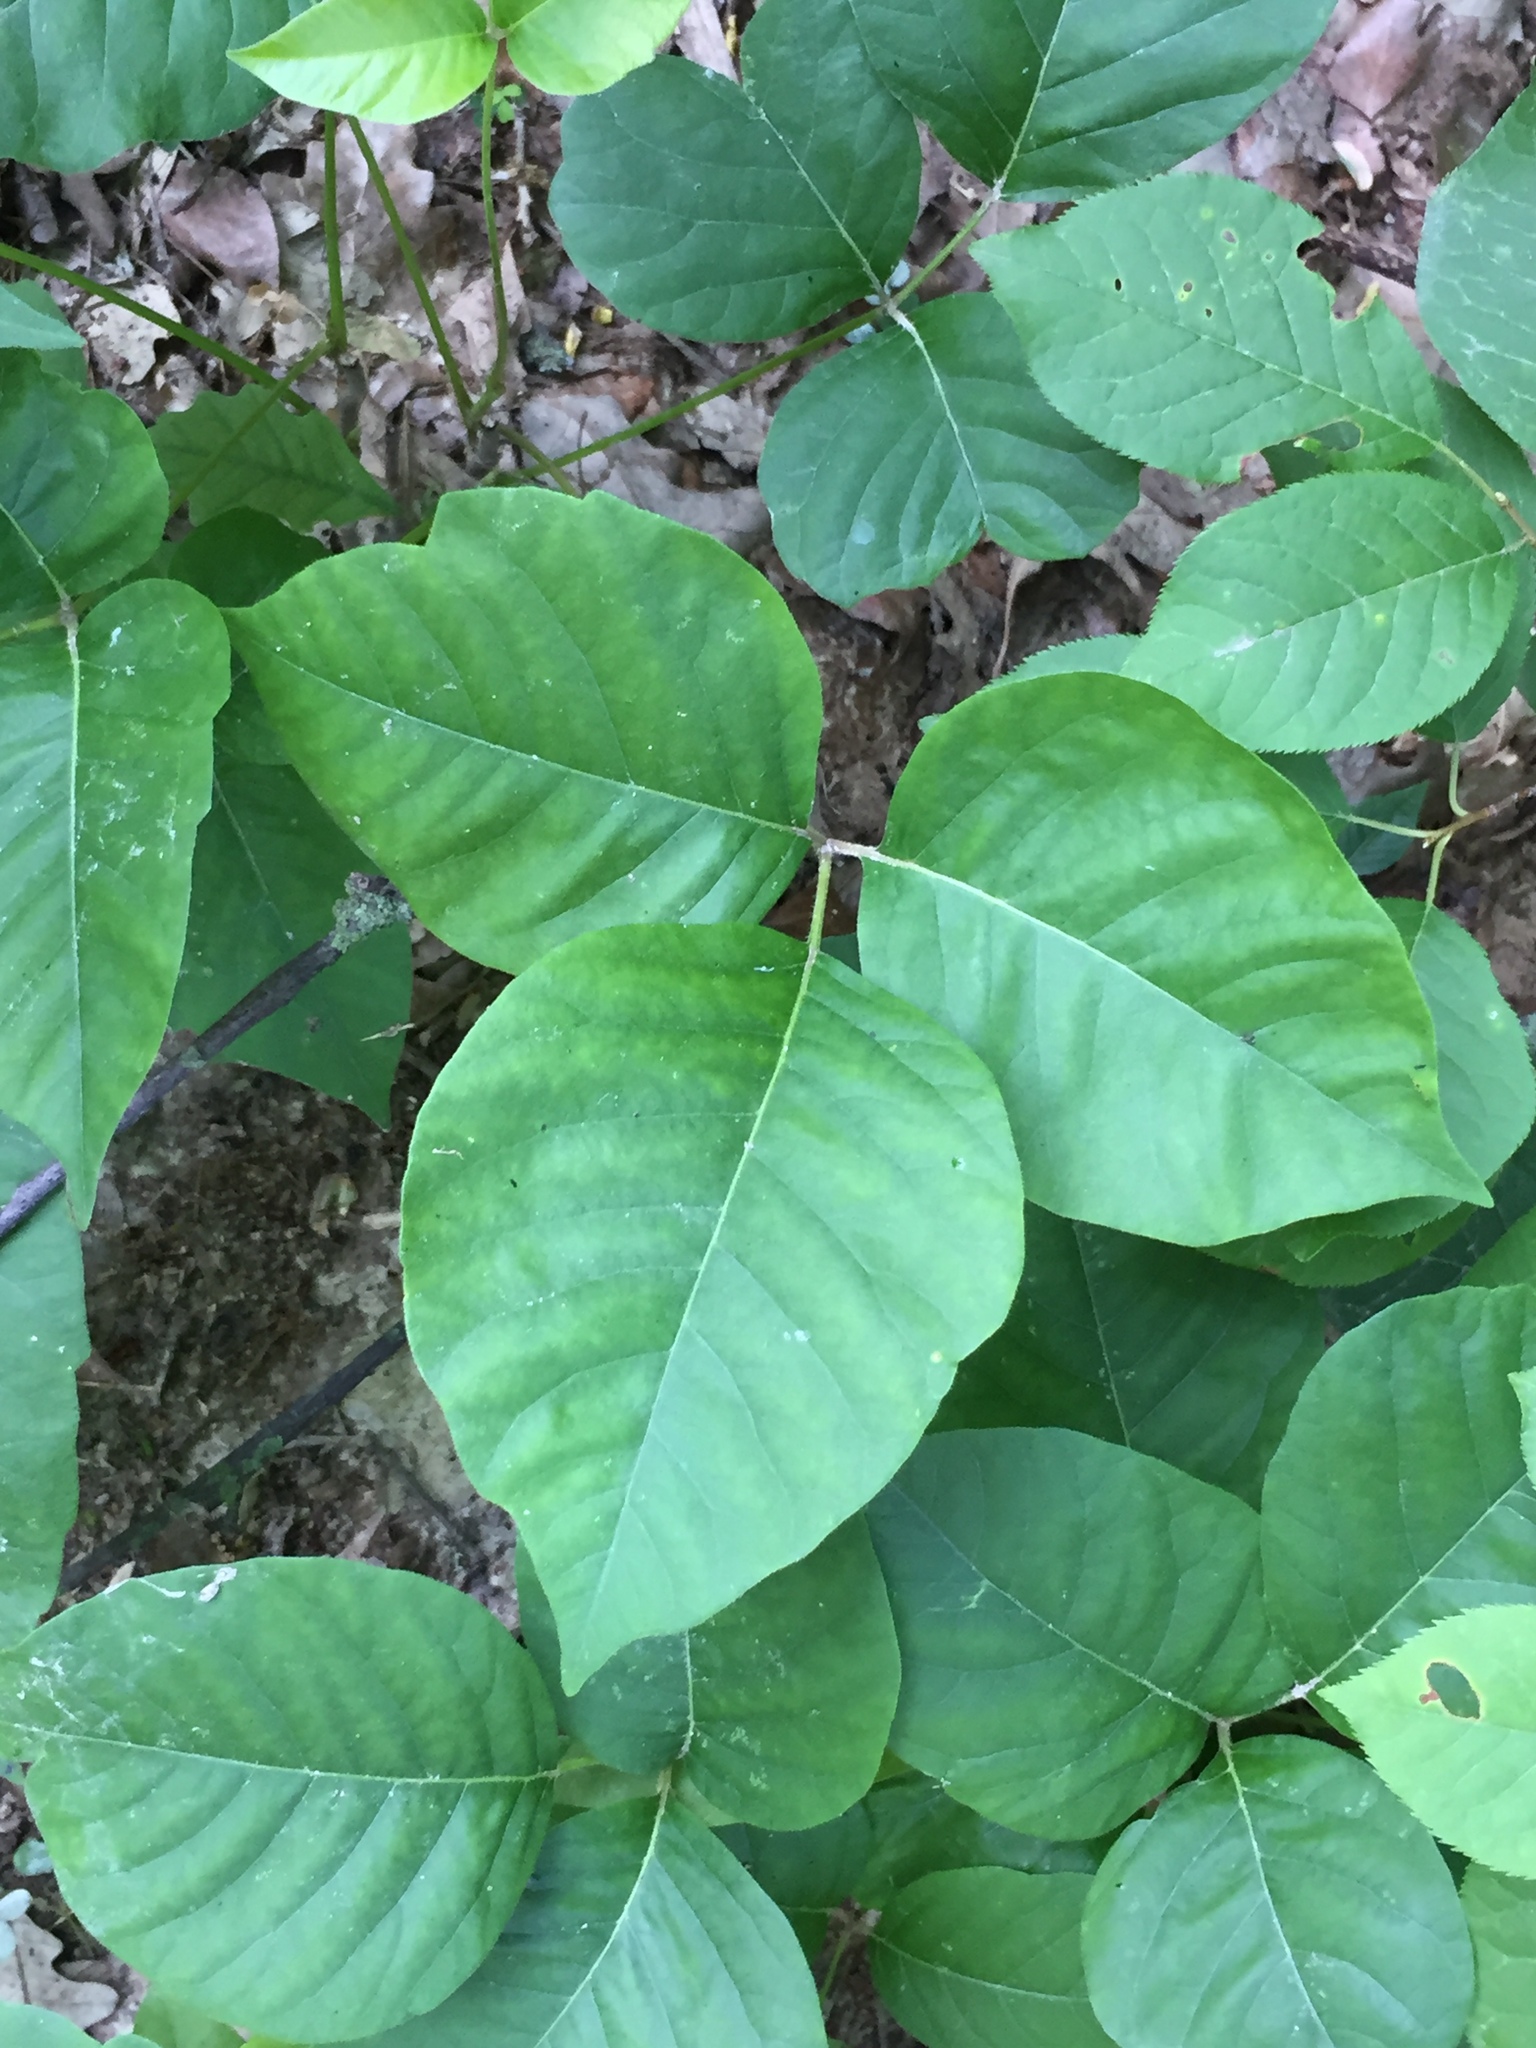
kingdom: Plantae
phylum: Tracheophyta
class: Magnoliopsida
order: Sapindales
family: Anacardiaceae
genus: Toxicodendron
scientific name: Toxicodendron rydbergii
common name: Rydberg's poison-ivy
